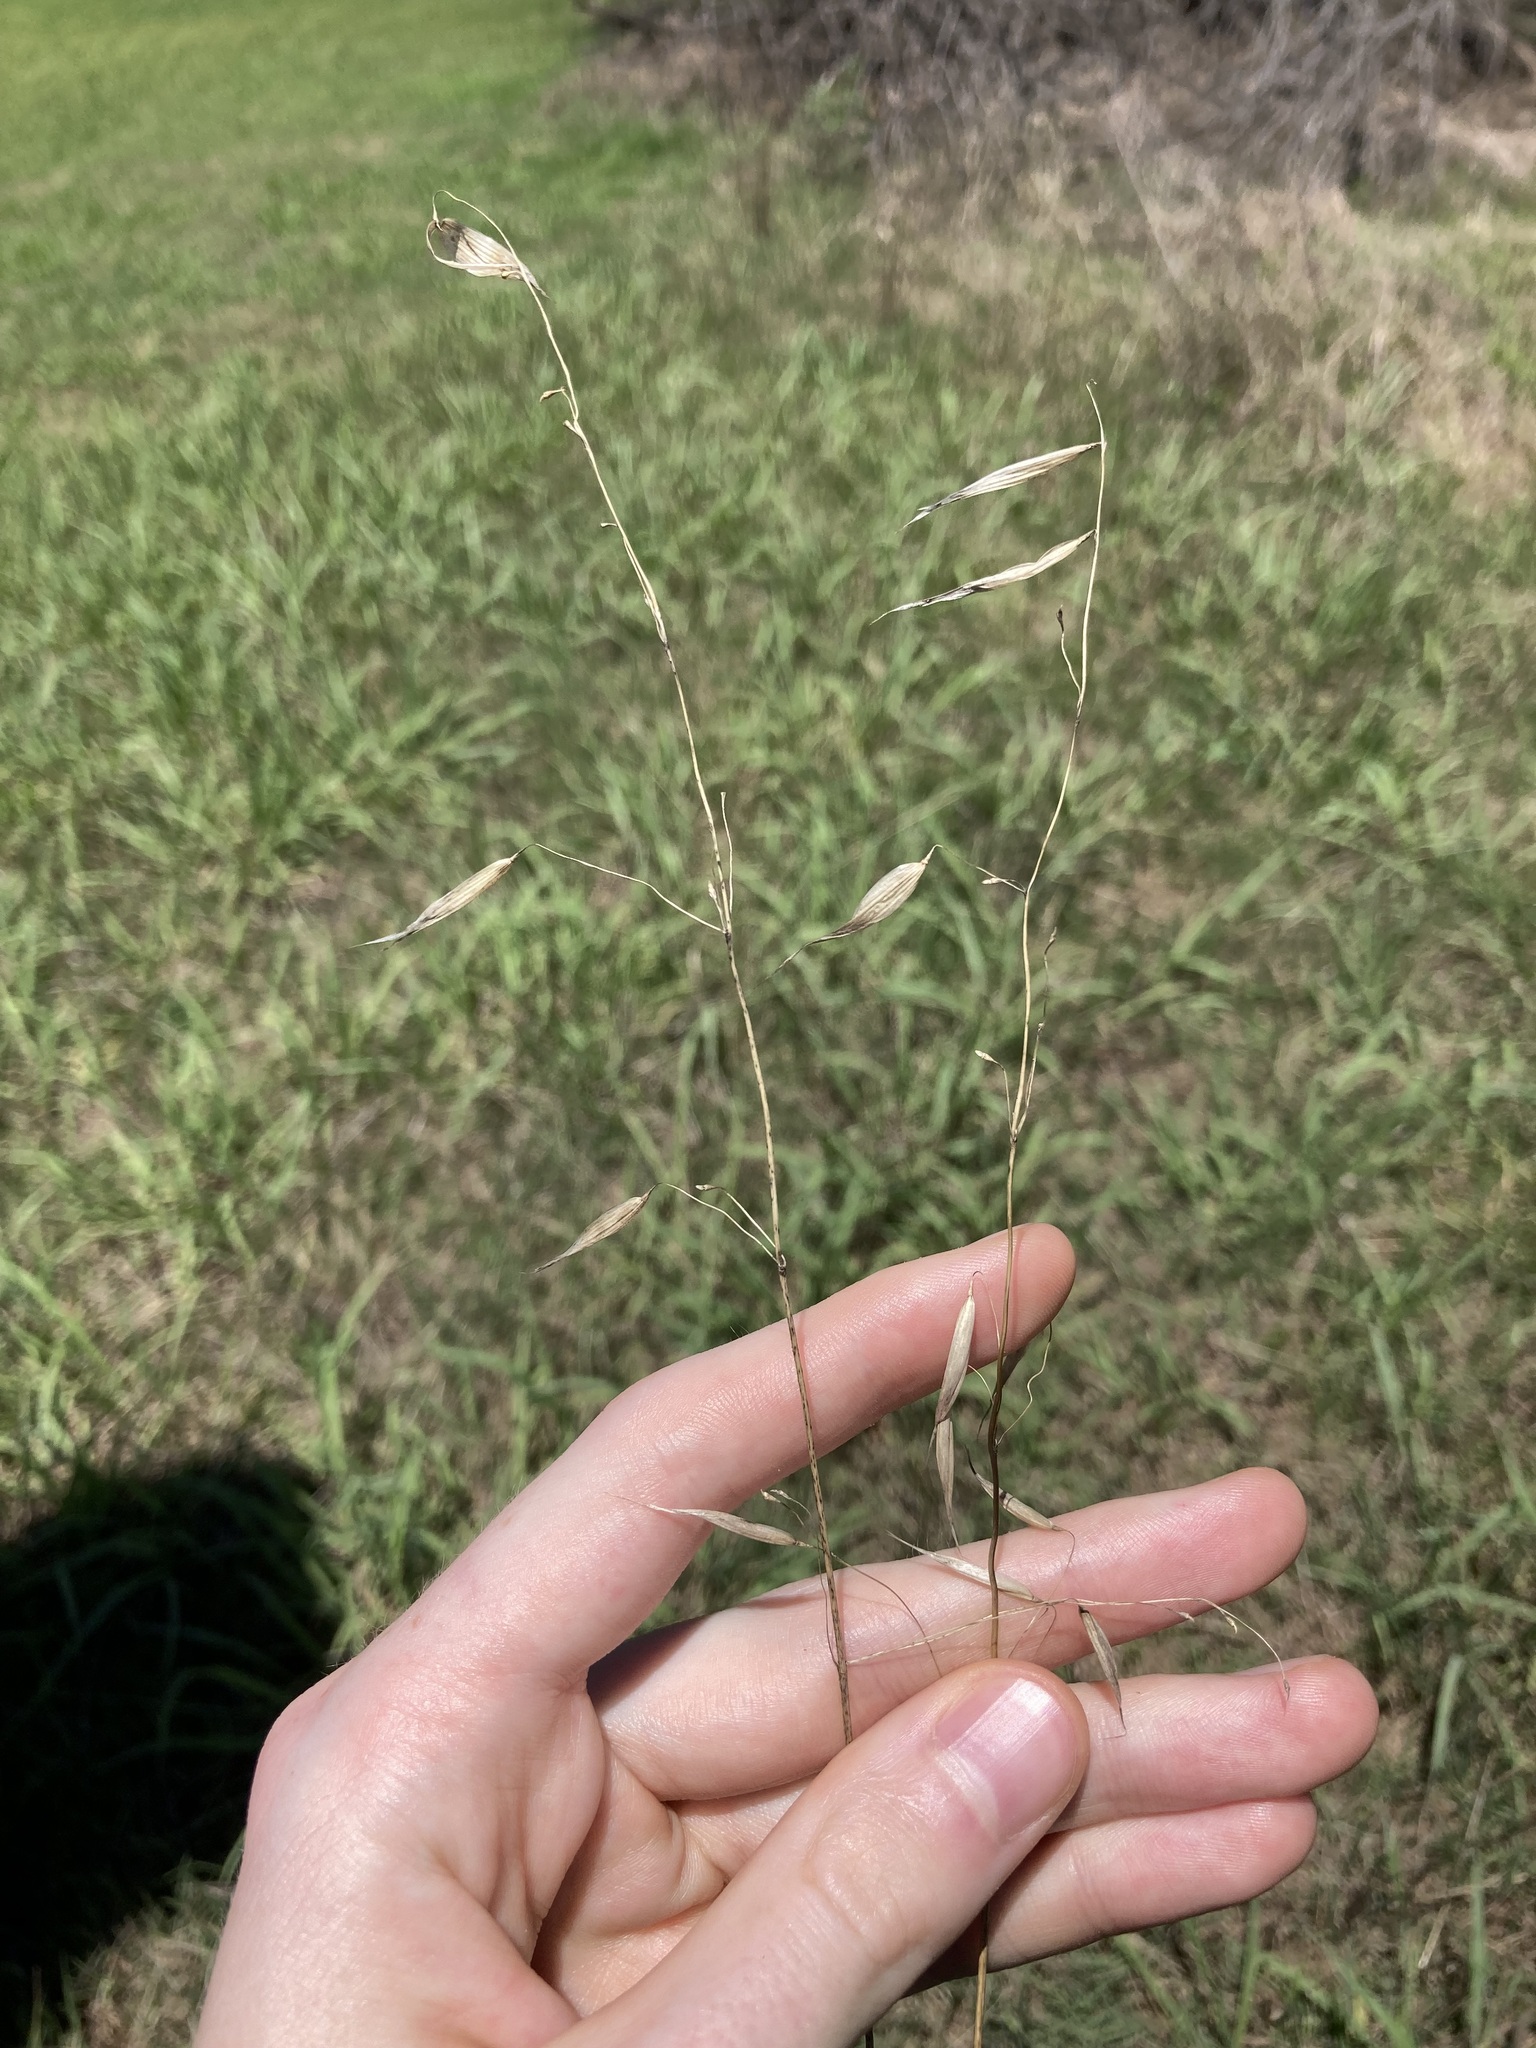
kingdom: Plantae
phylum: Tracheophyta
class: Liliopsida
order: Poales
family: Poaceae
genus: Avena
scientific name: Avena
